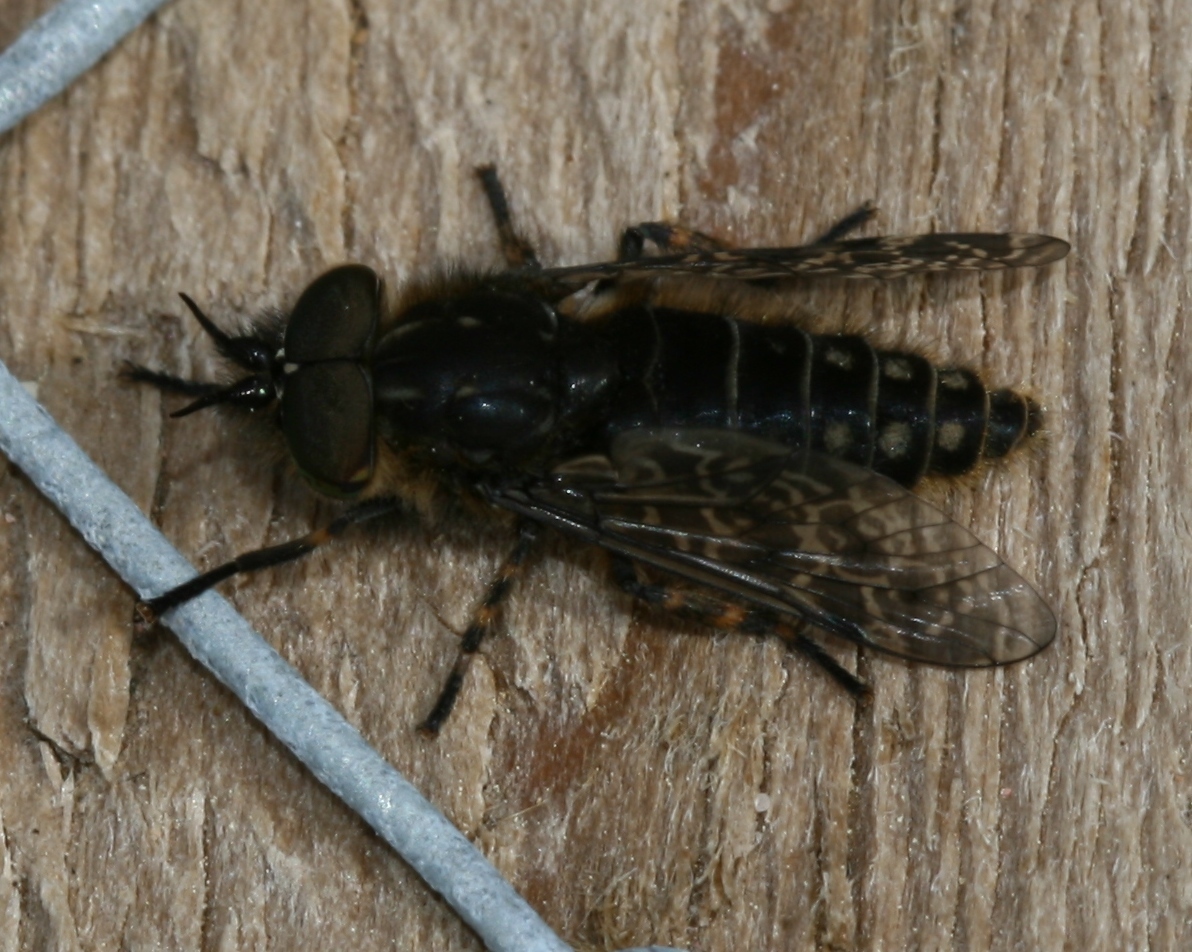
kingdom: Animalia
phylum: Arthropoda
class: Insecta
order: Diptera
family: Tabanidae
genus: Haematopota
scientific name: Haematopota crassicornis
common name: Black-horned cleg
